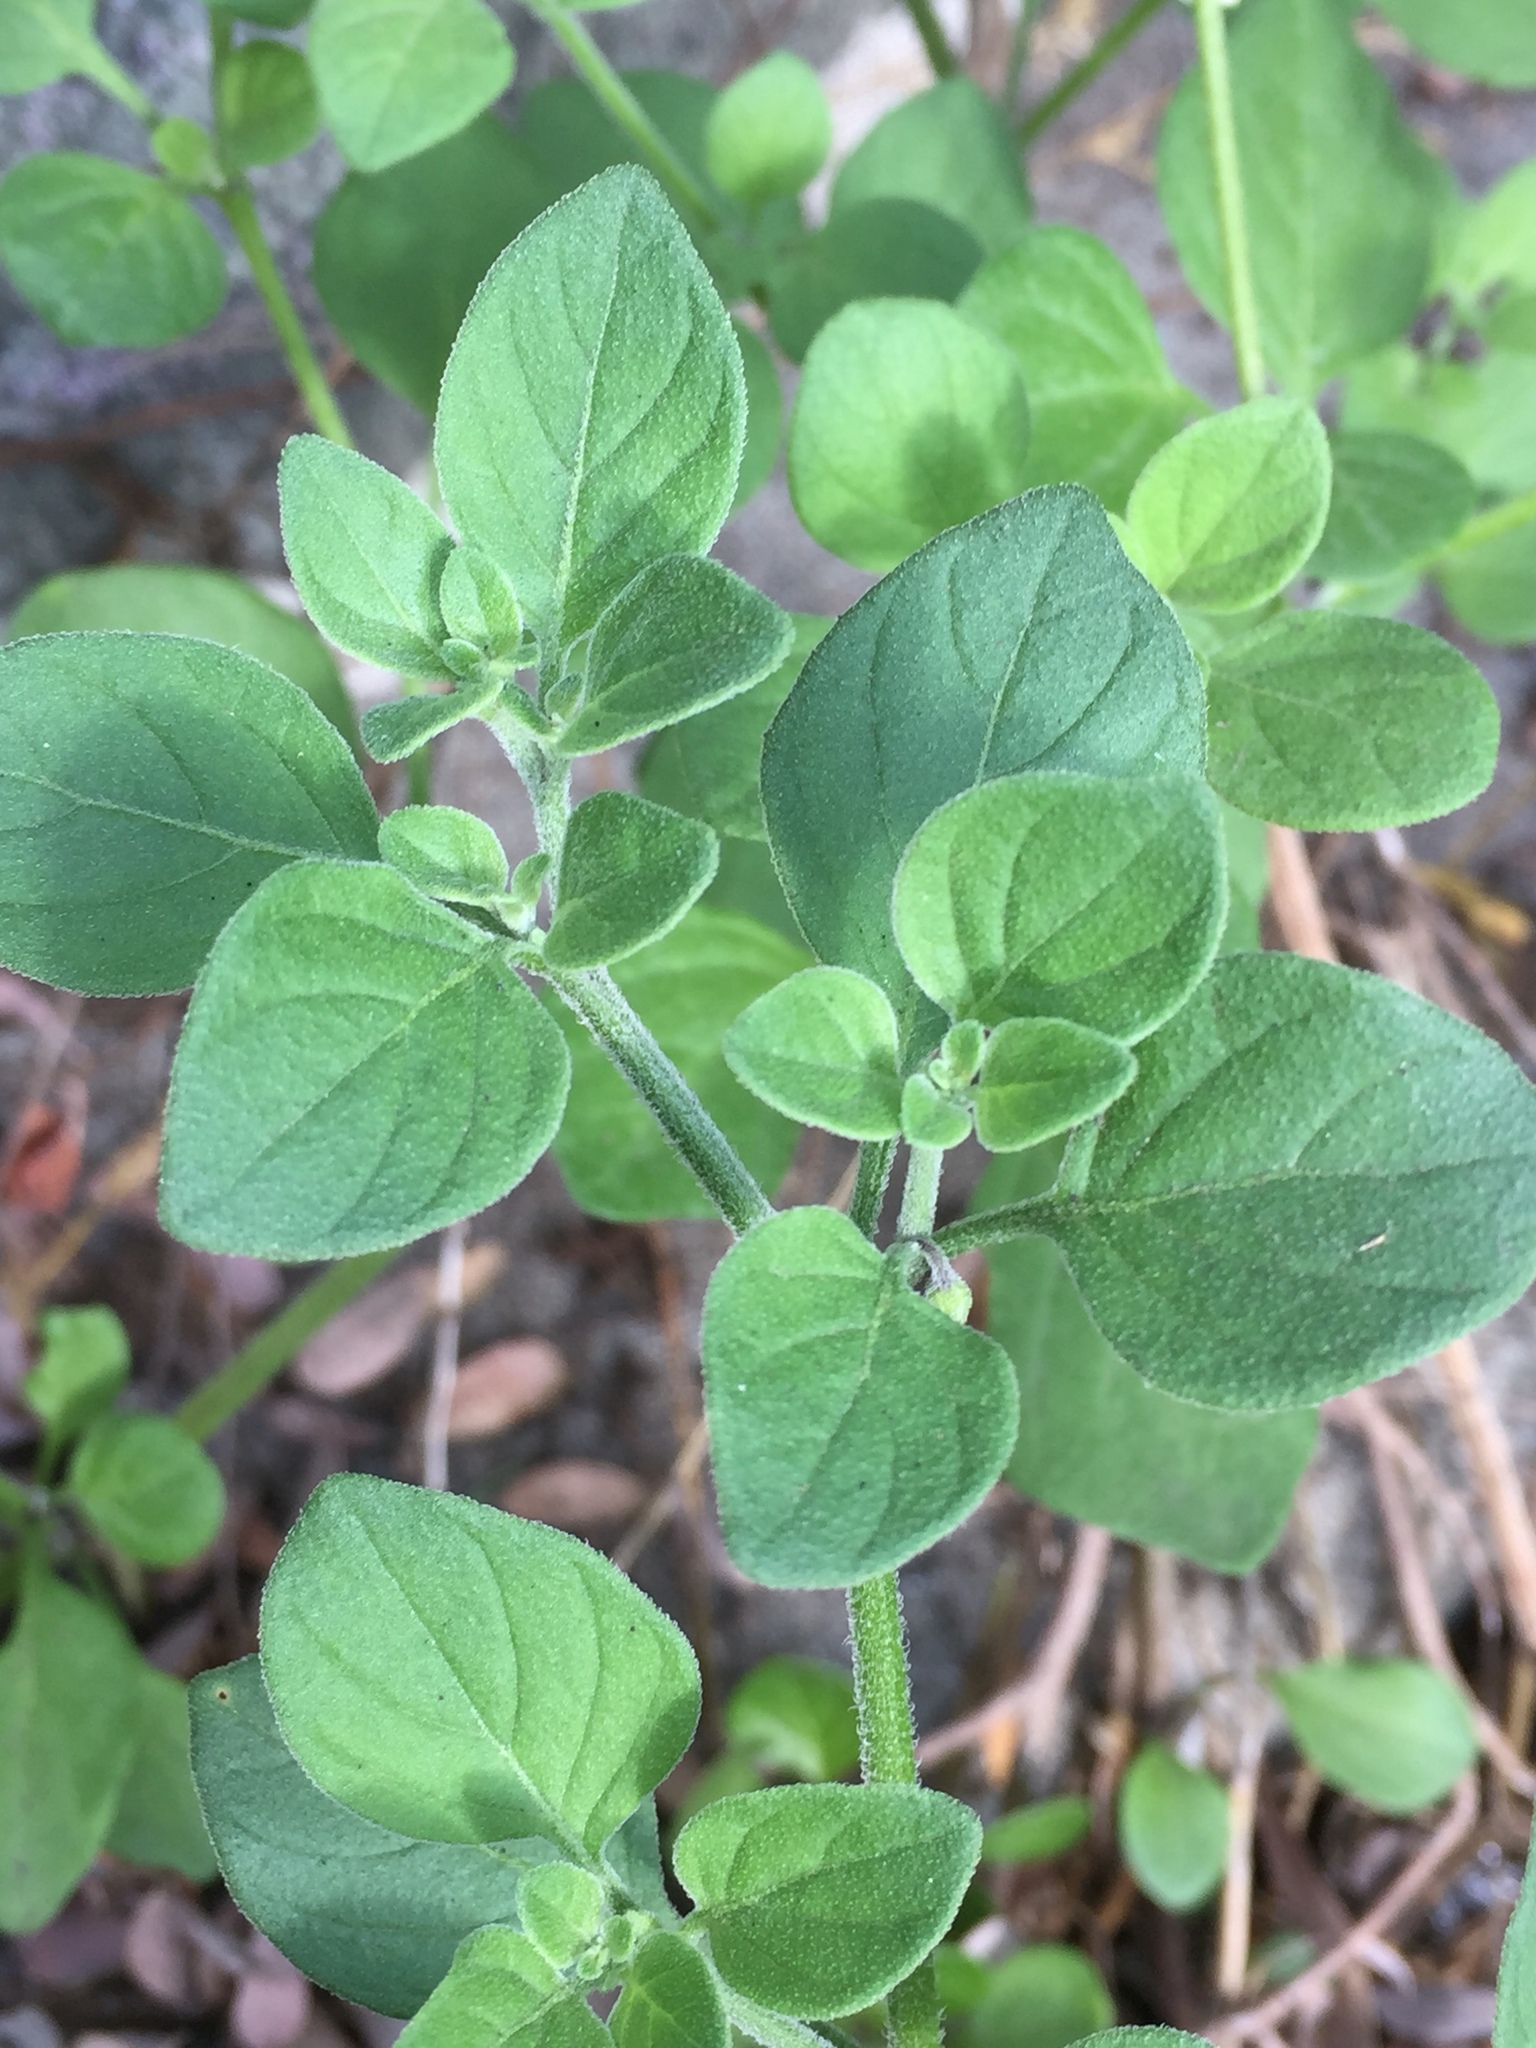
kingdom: Plantae
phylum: Tracheophyta
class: Magnoliopsida
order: Solanales
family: Solanaceae
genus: Salpichroa
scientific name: Salpichroa origanifolia
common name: Lily-of-the-valley-vine
